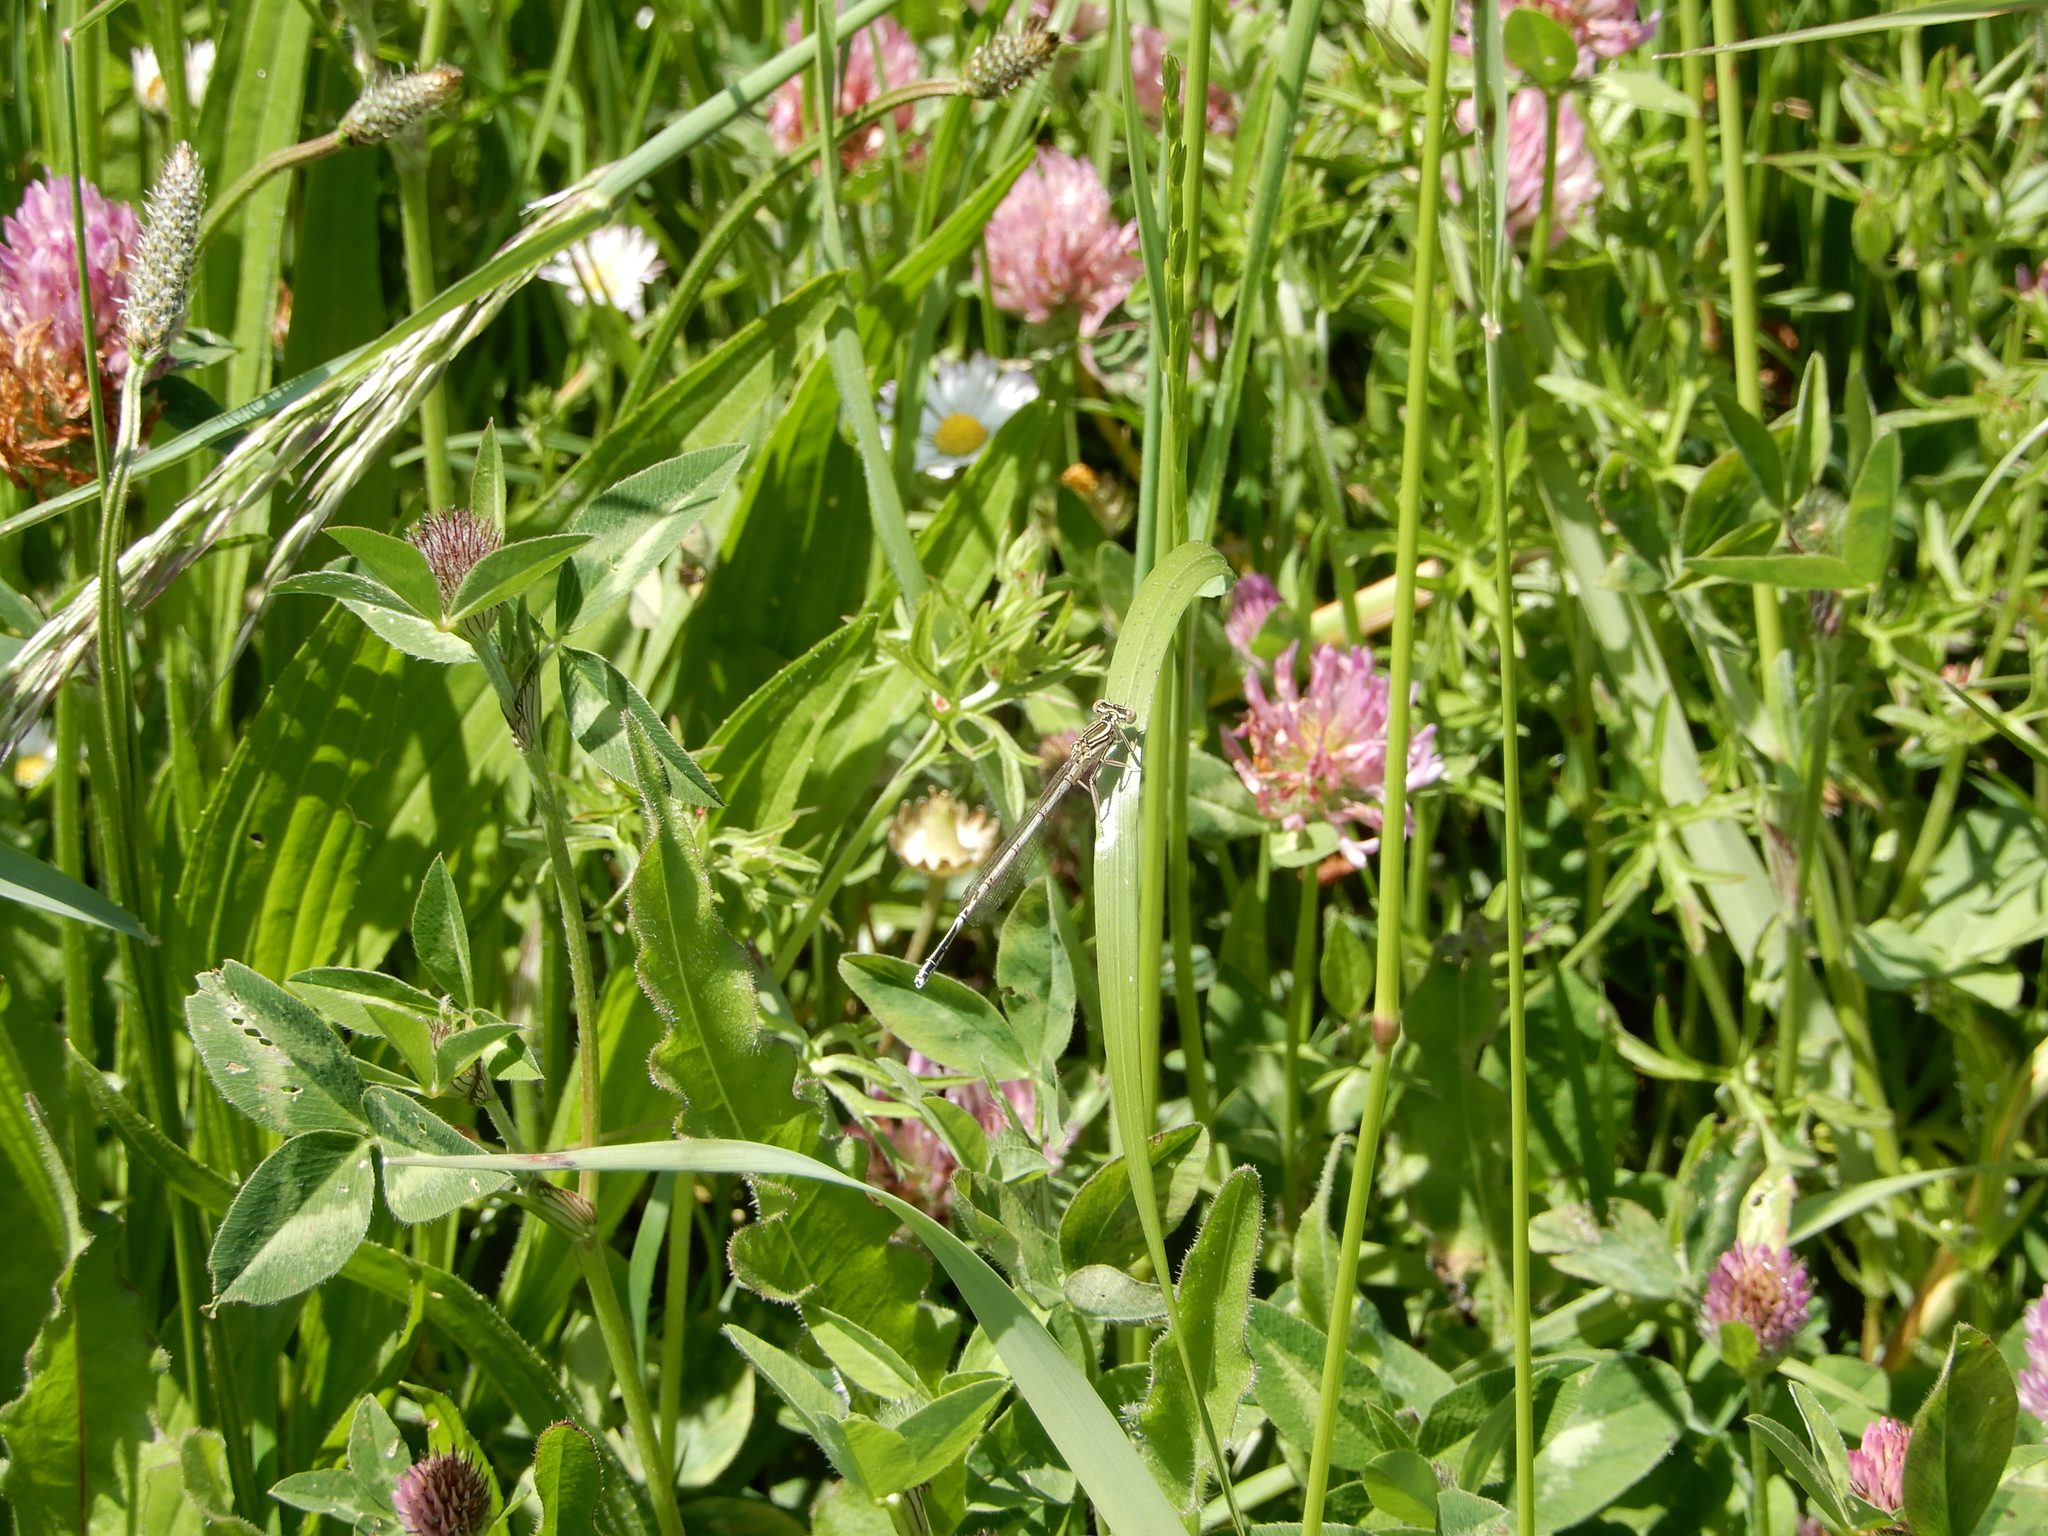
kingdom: Animalia
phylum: Arthropoda
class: Insecta
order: Odonata
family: Platycnemididae
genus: Platycnemis
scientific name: Platycnemis pennipes
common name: White-legged damselfly
